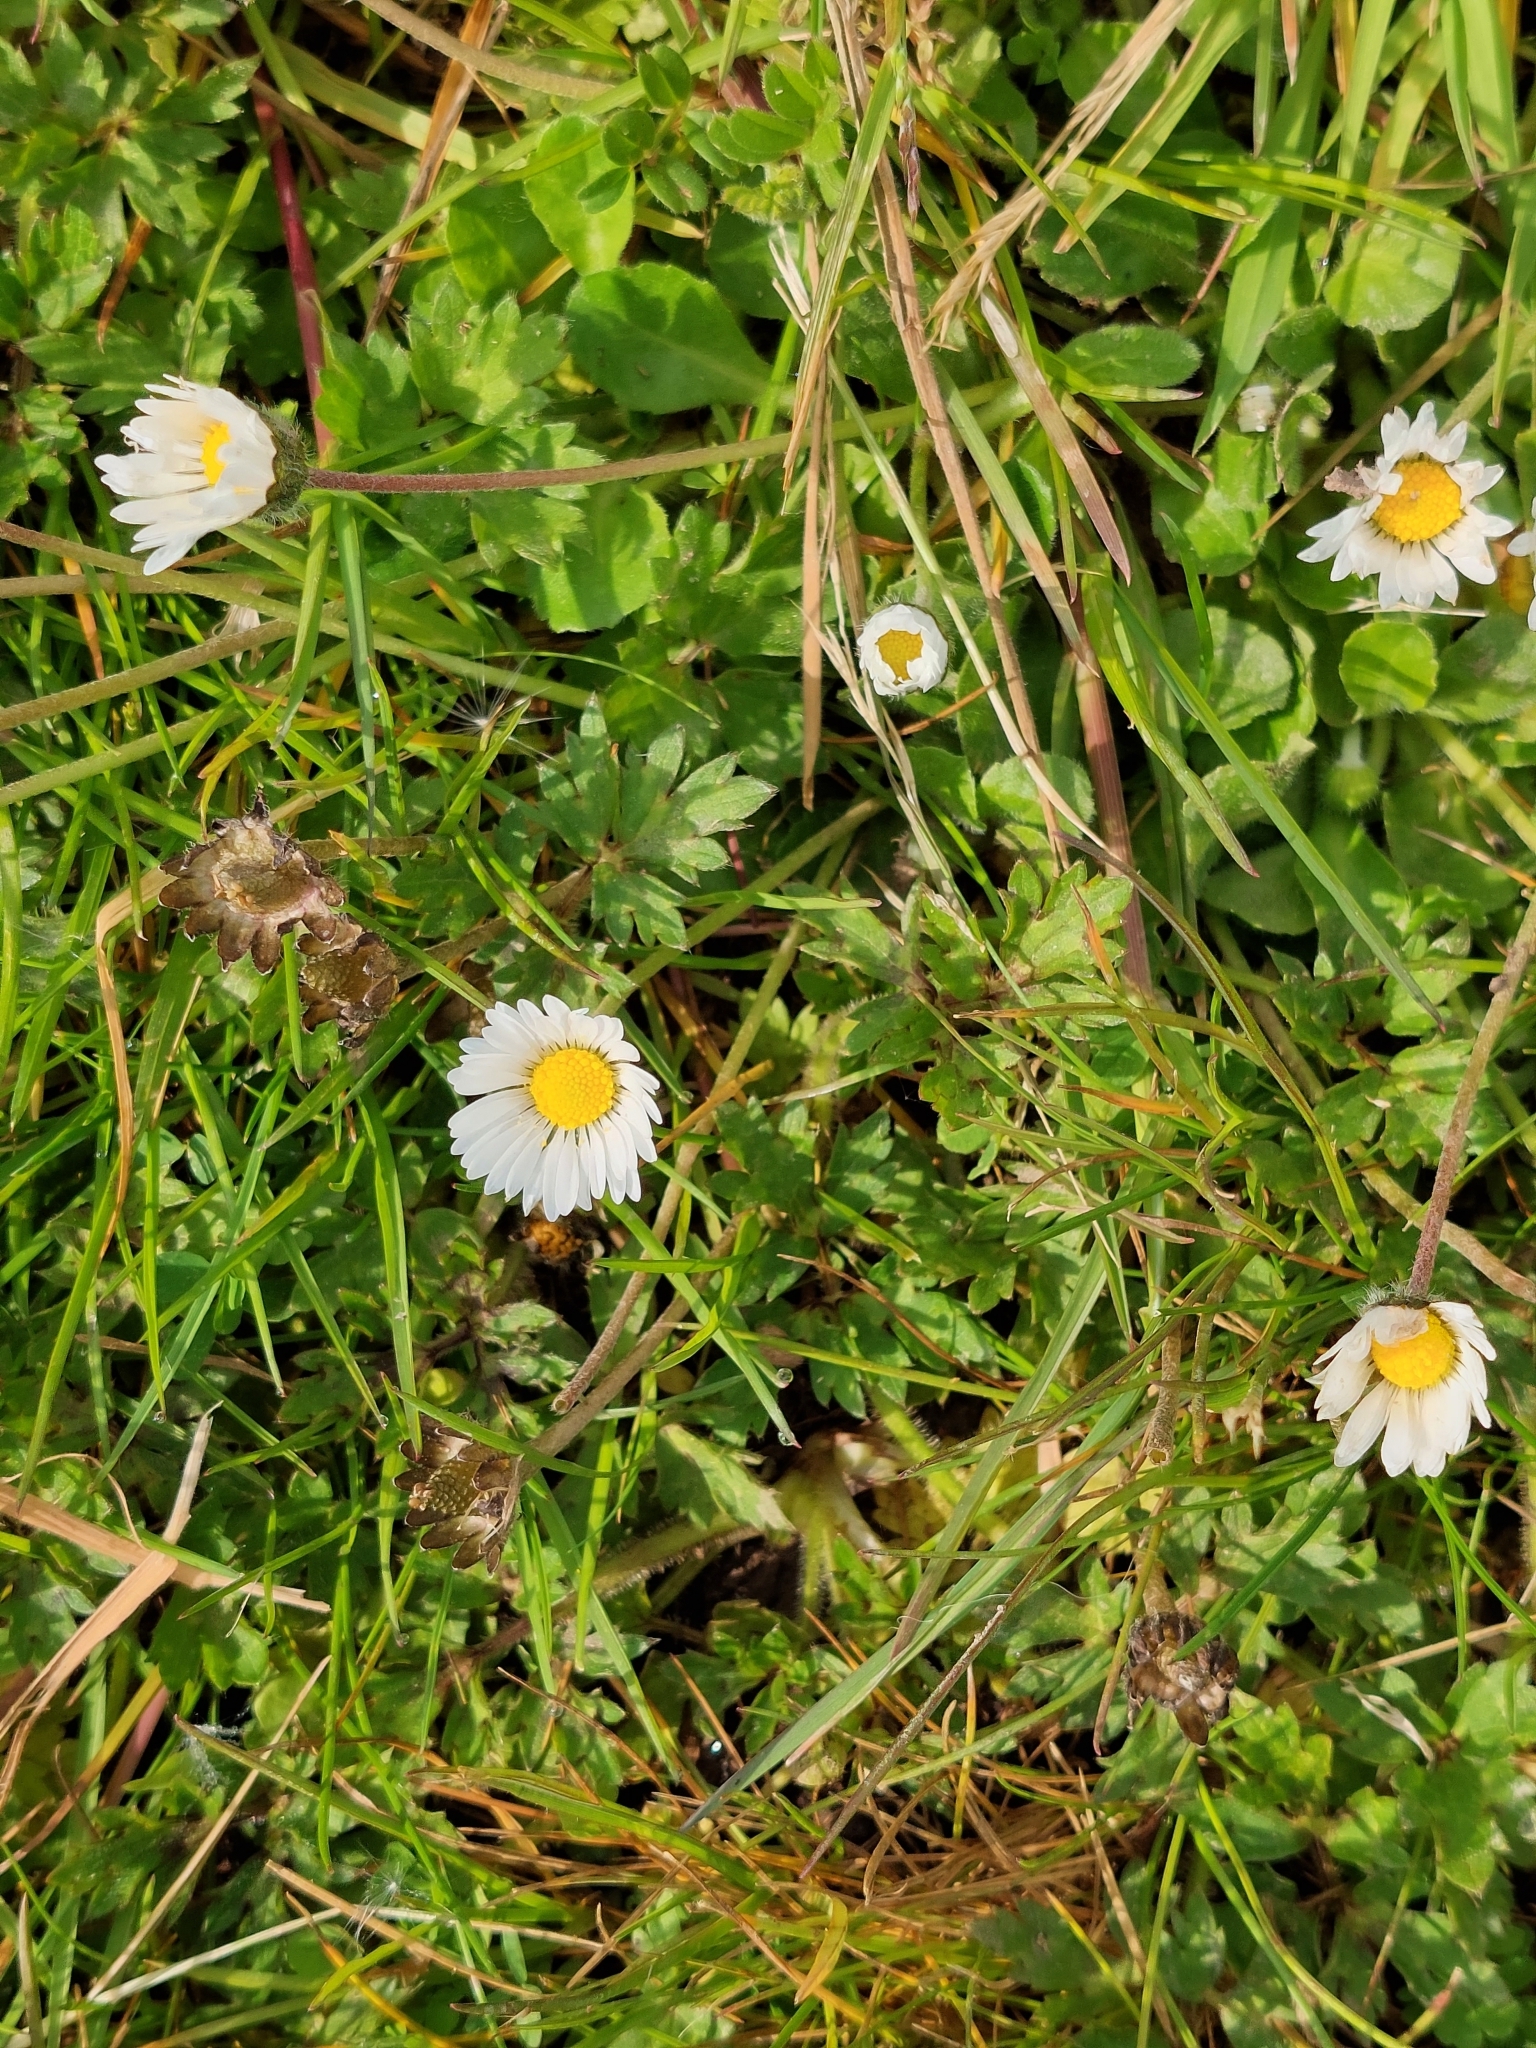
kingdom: Plantae
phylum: Tracheophyta
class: Magnoliopsida
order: Asterales
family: Asteraceae
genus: Bellis
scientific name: Bellis perennis
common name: Lawndaisy
